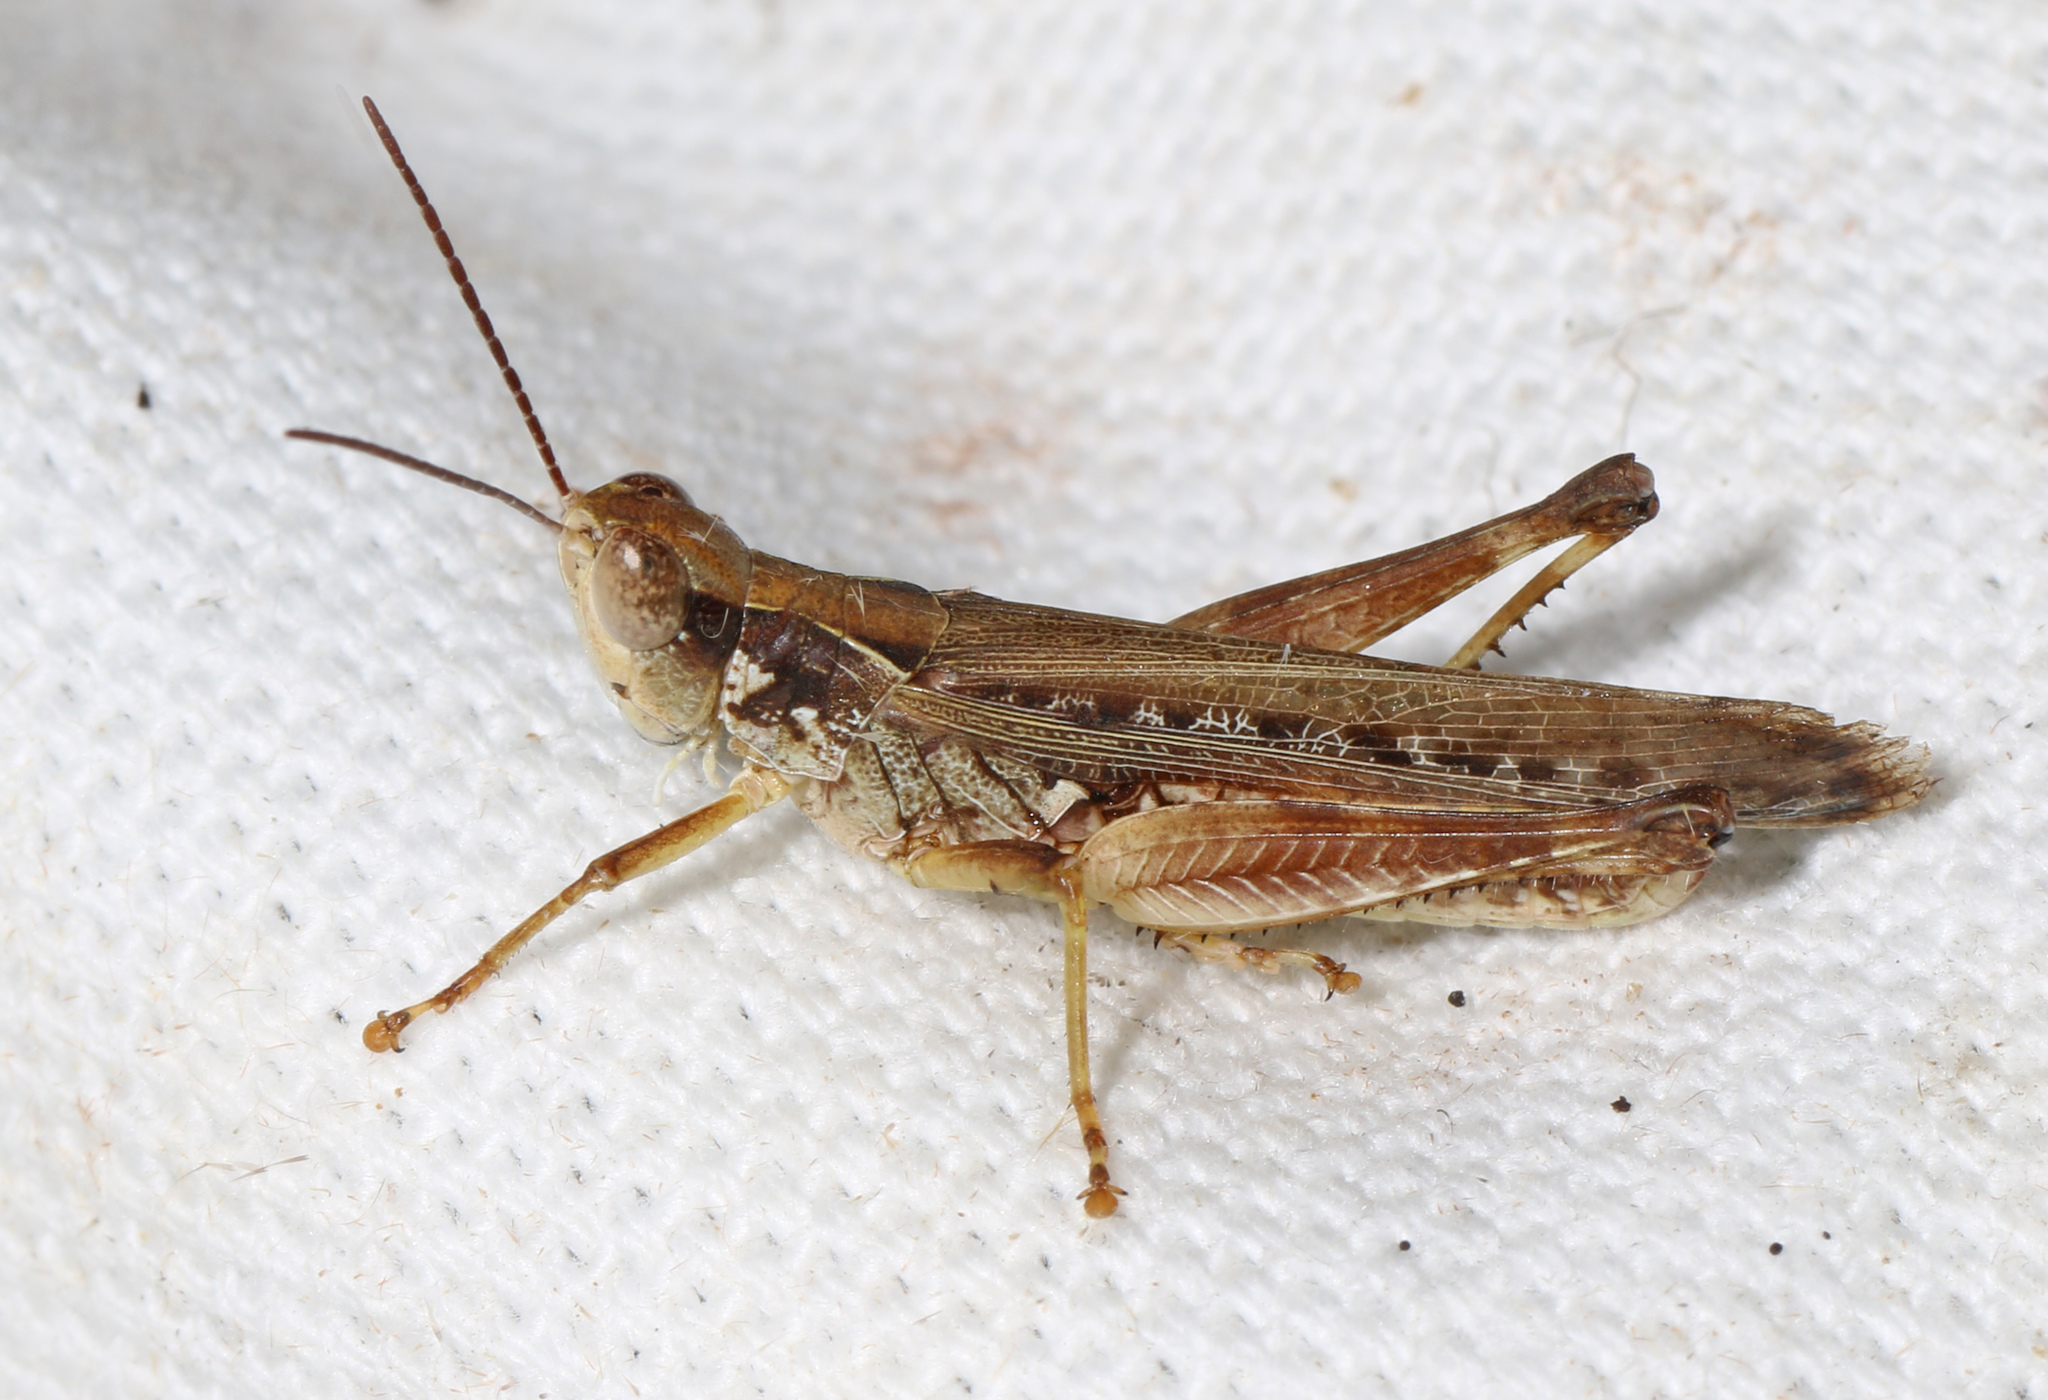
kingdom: Animalia
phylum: Arthropoda
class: Insecta
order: Orthoptera
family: Acrididae
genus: Orphulella
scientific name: Orphulella pelidna
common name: Spotted-wing grasshopper
